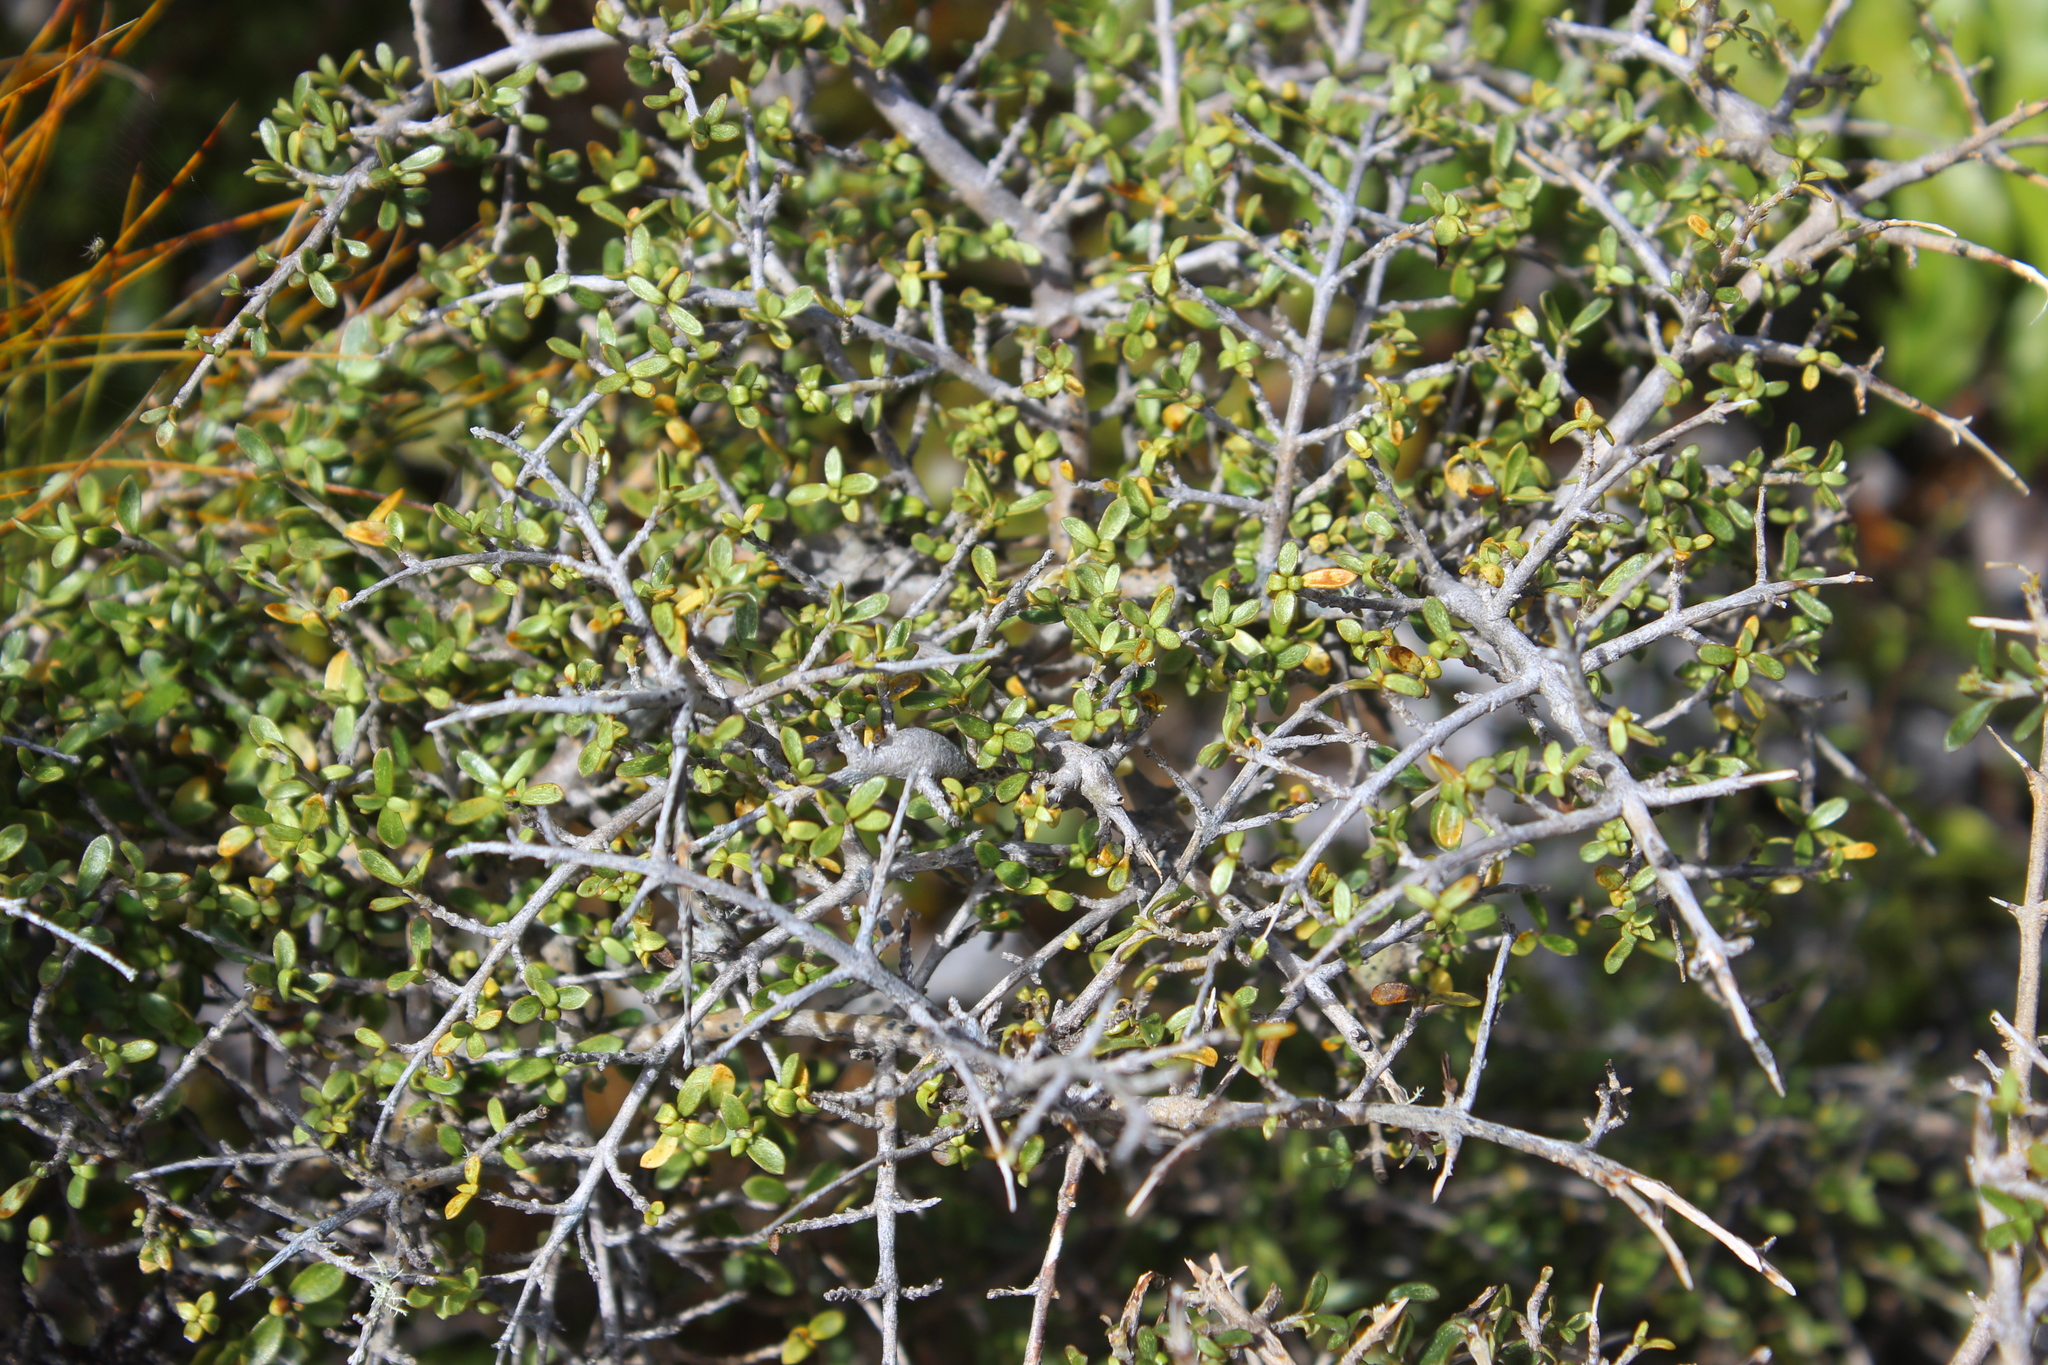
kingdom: Plantae
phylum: Tracheophyta
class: Magnoliopsida
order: Gentianales
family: Rubiaceae
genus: Coprosma
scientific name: Coprosma dumosa
